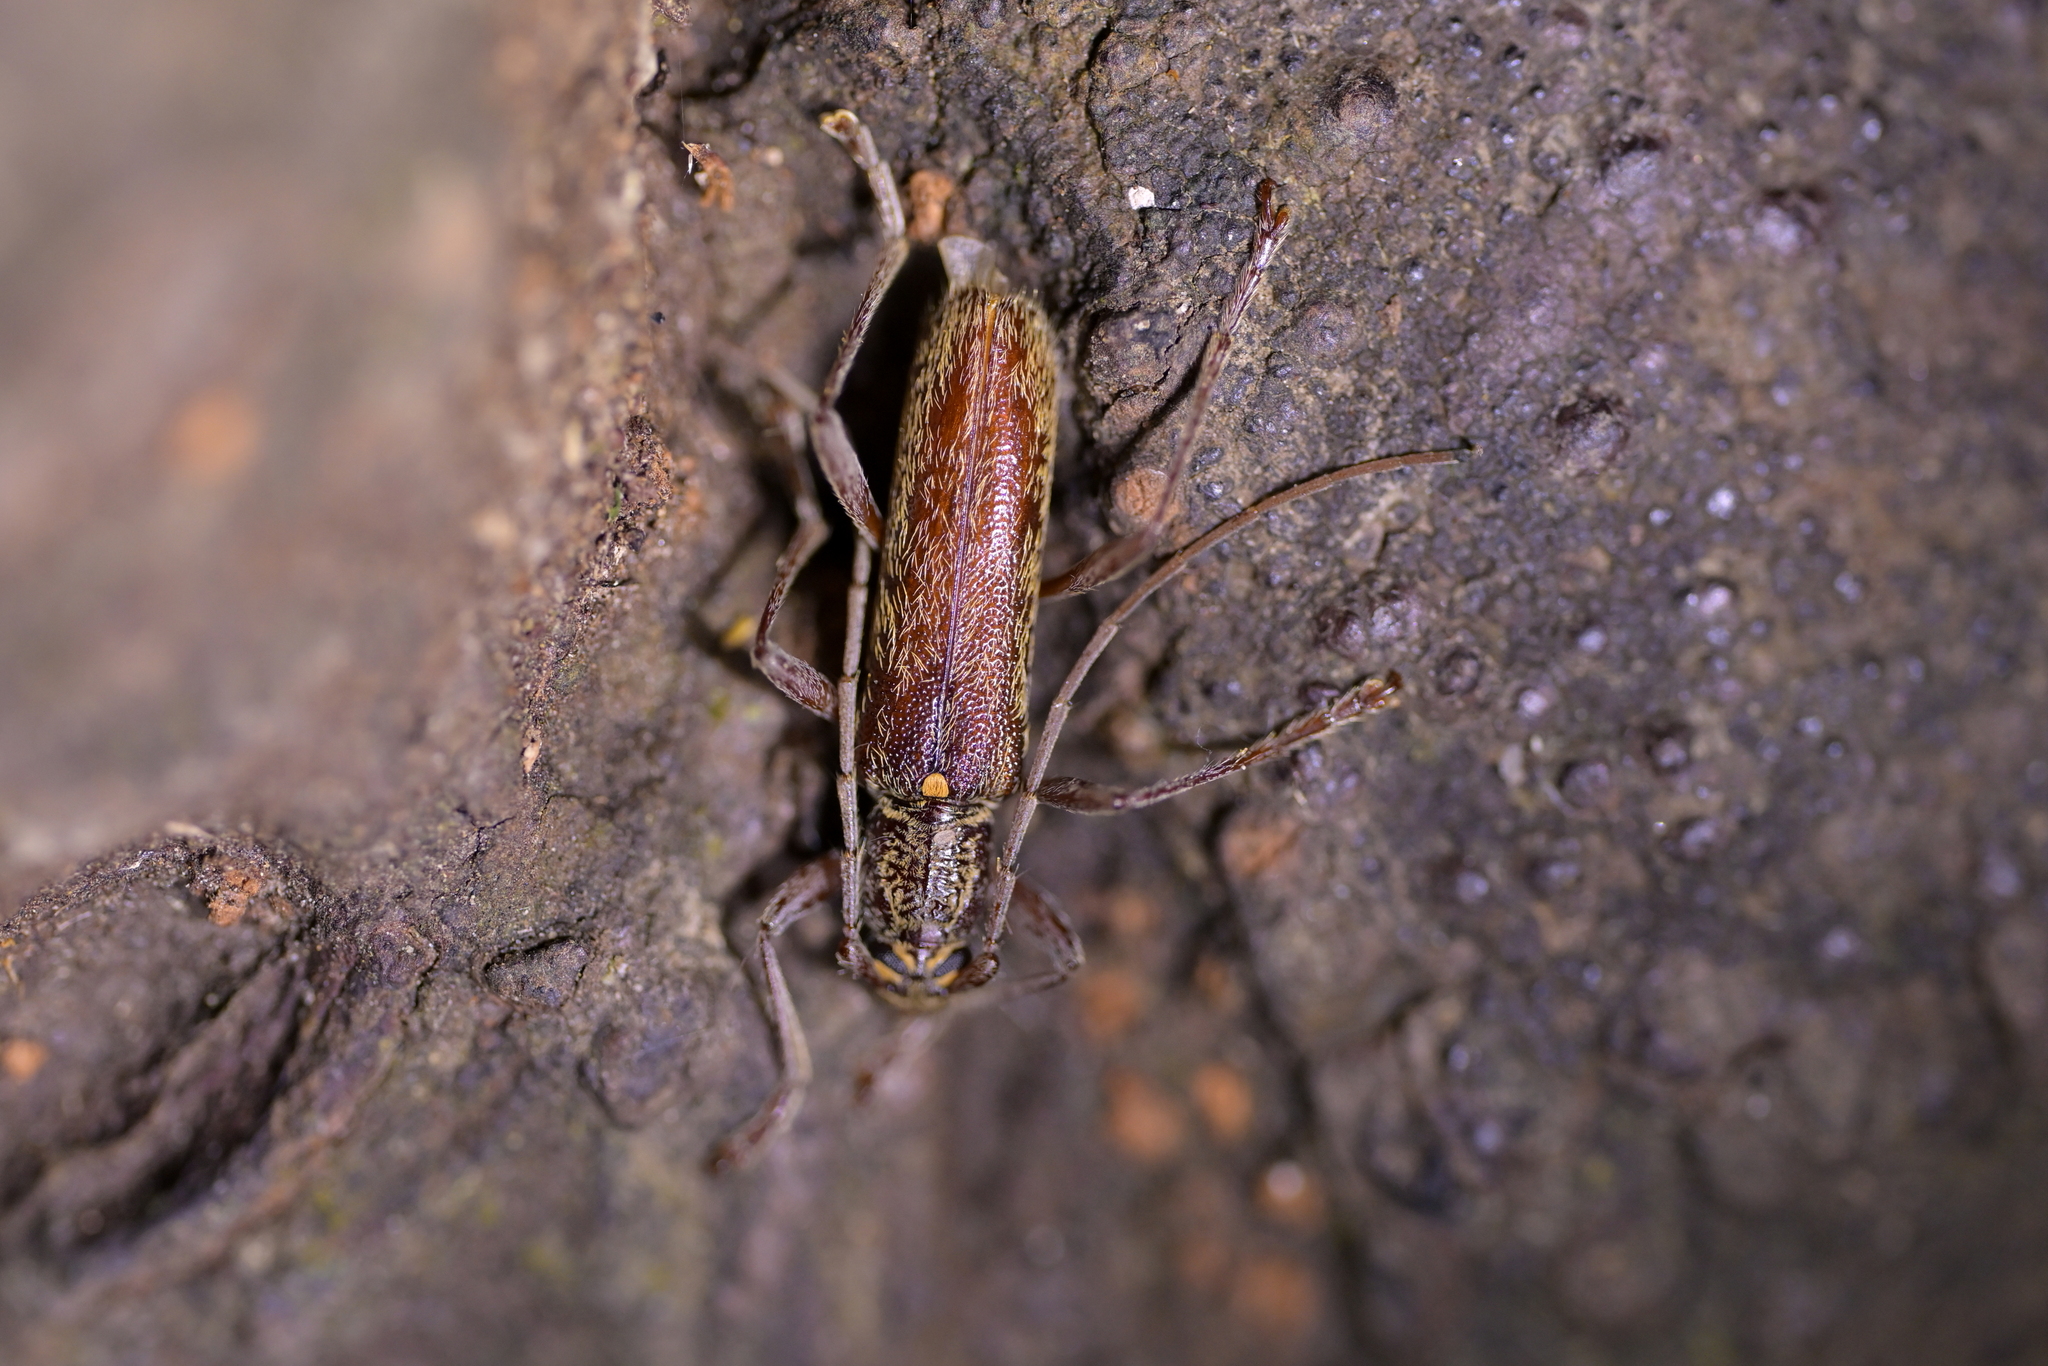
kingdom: Animalia
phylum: Arthropoda
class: Insecta
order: Coleoptera
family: Cerambycidae
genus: Oemona
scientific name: Oemona hirta
